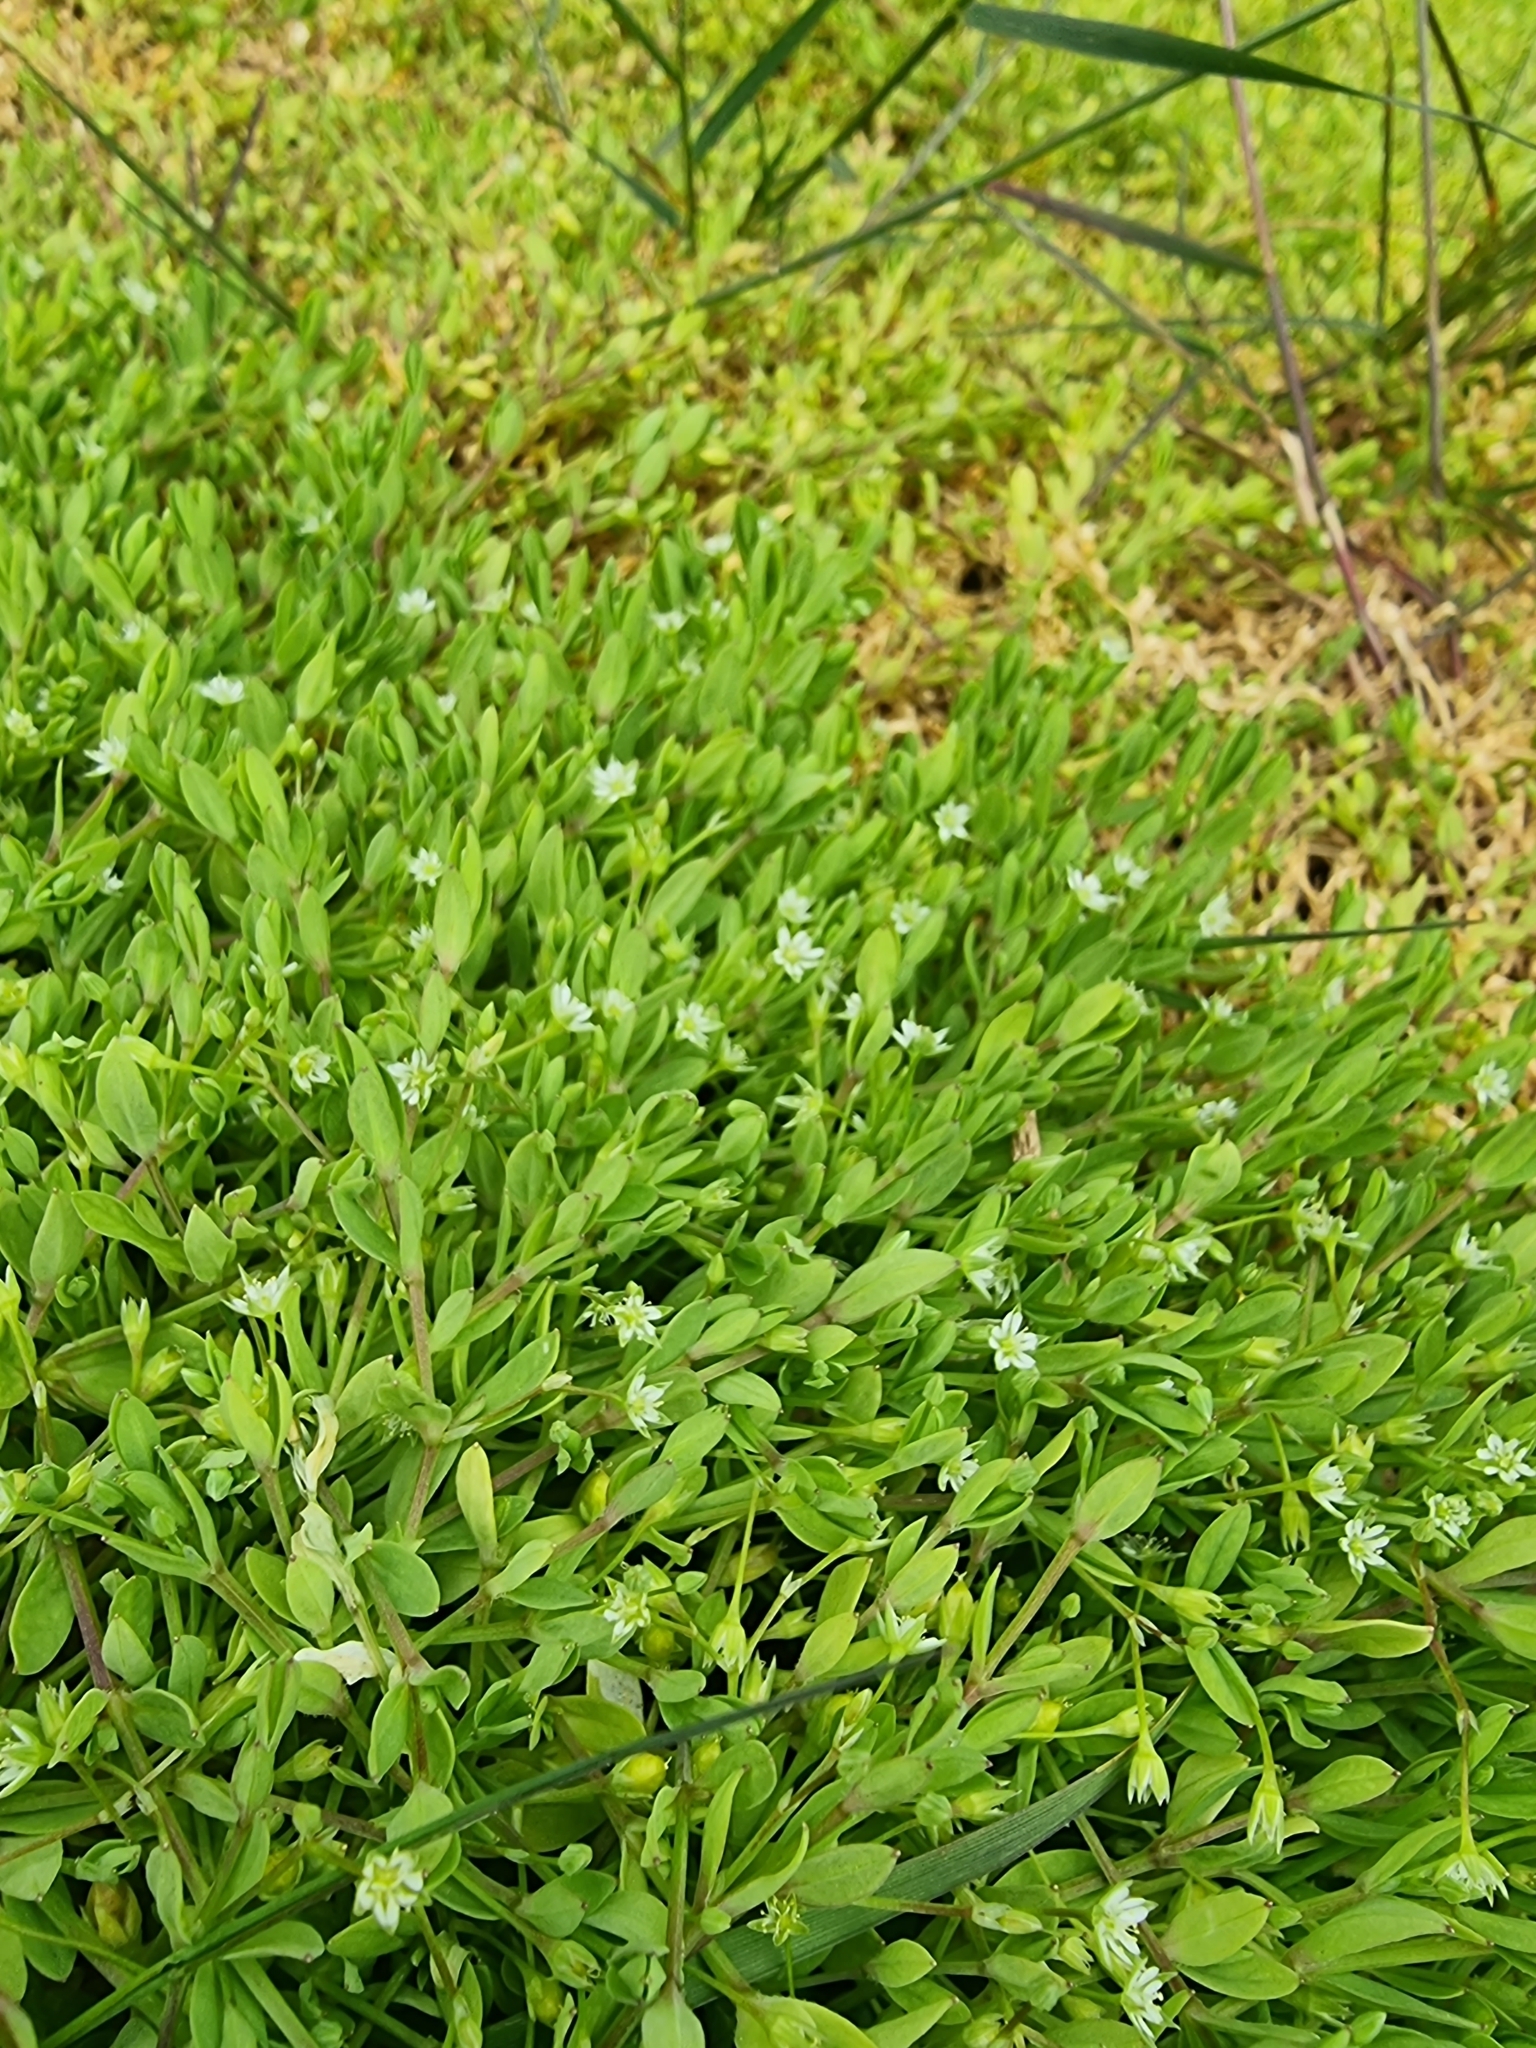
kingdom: Plantae
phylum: Tracheophyta
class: Magnoliopsida
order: Caryophyllales
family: Caryophyllaceae
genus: Stellaria
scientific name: Stellaria alsine
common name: Bog stitchwort
